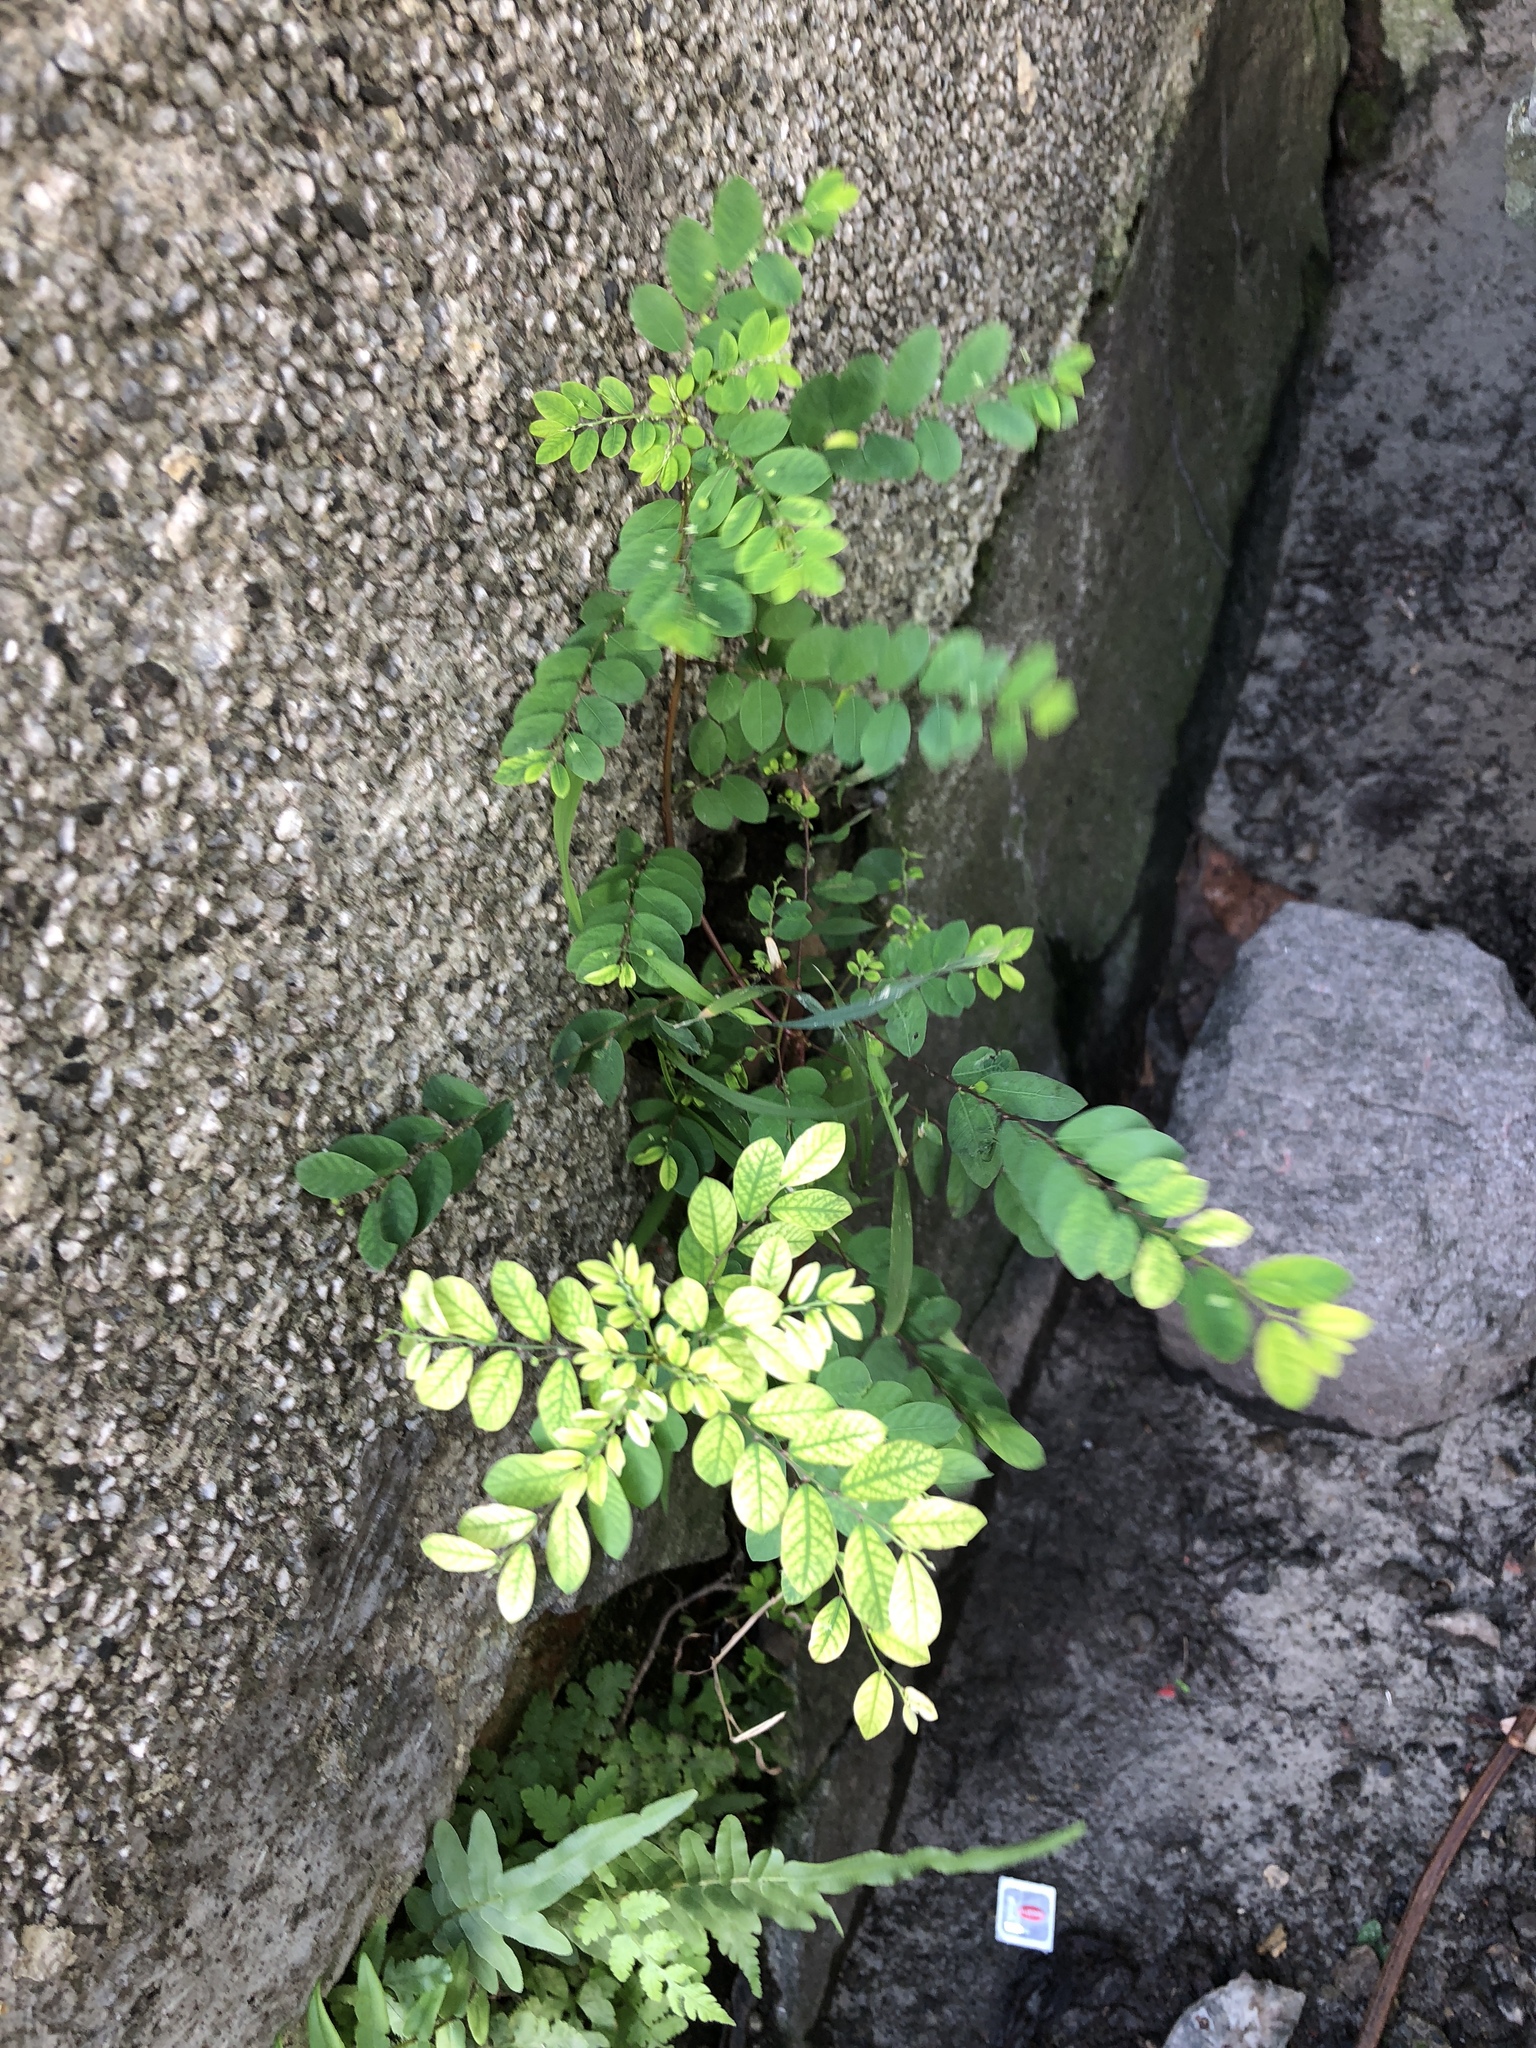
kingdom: Plantae
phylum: Tracheophyta
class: Magnoliopsida
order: Malpighiales
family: Phyllanthaceae
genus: Phyllanthus
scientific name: Phyllanthus tenellus
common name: Mascarene island leaf-flower
